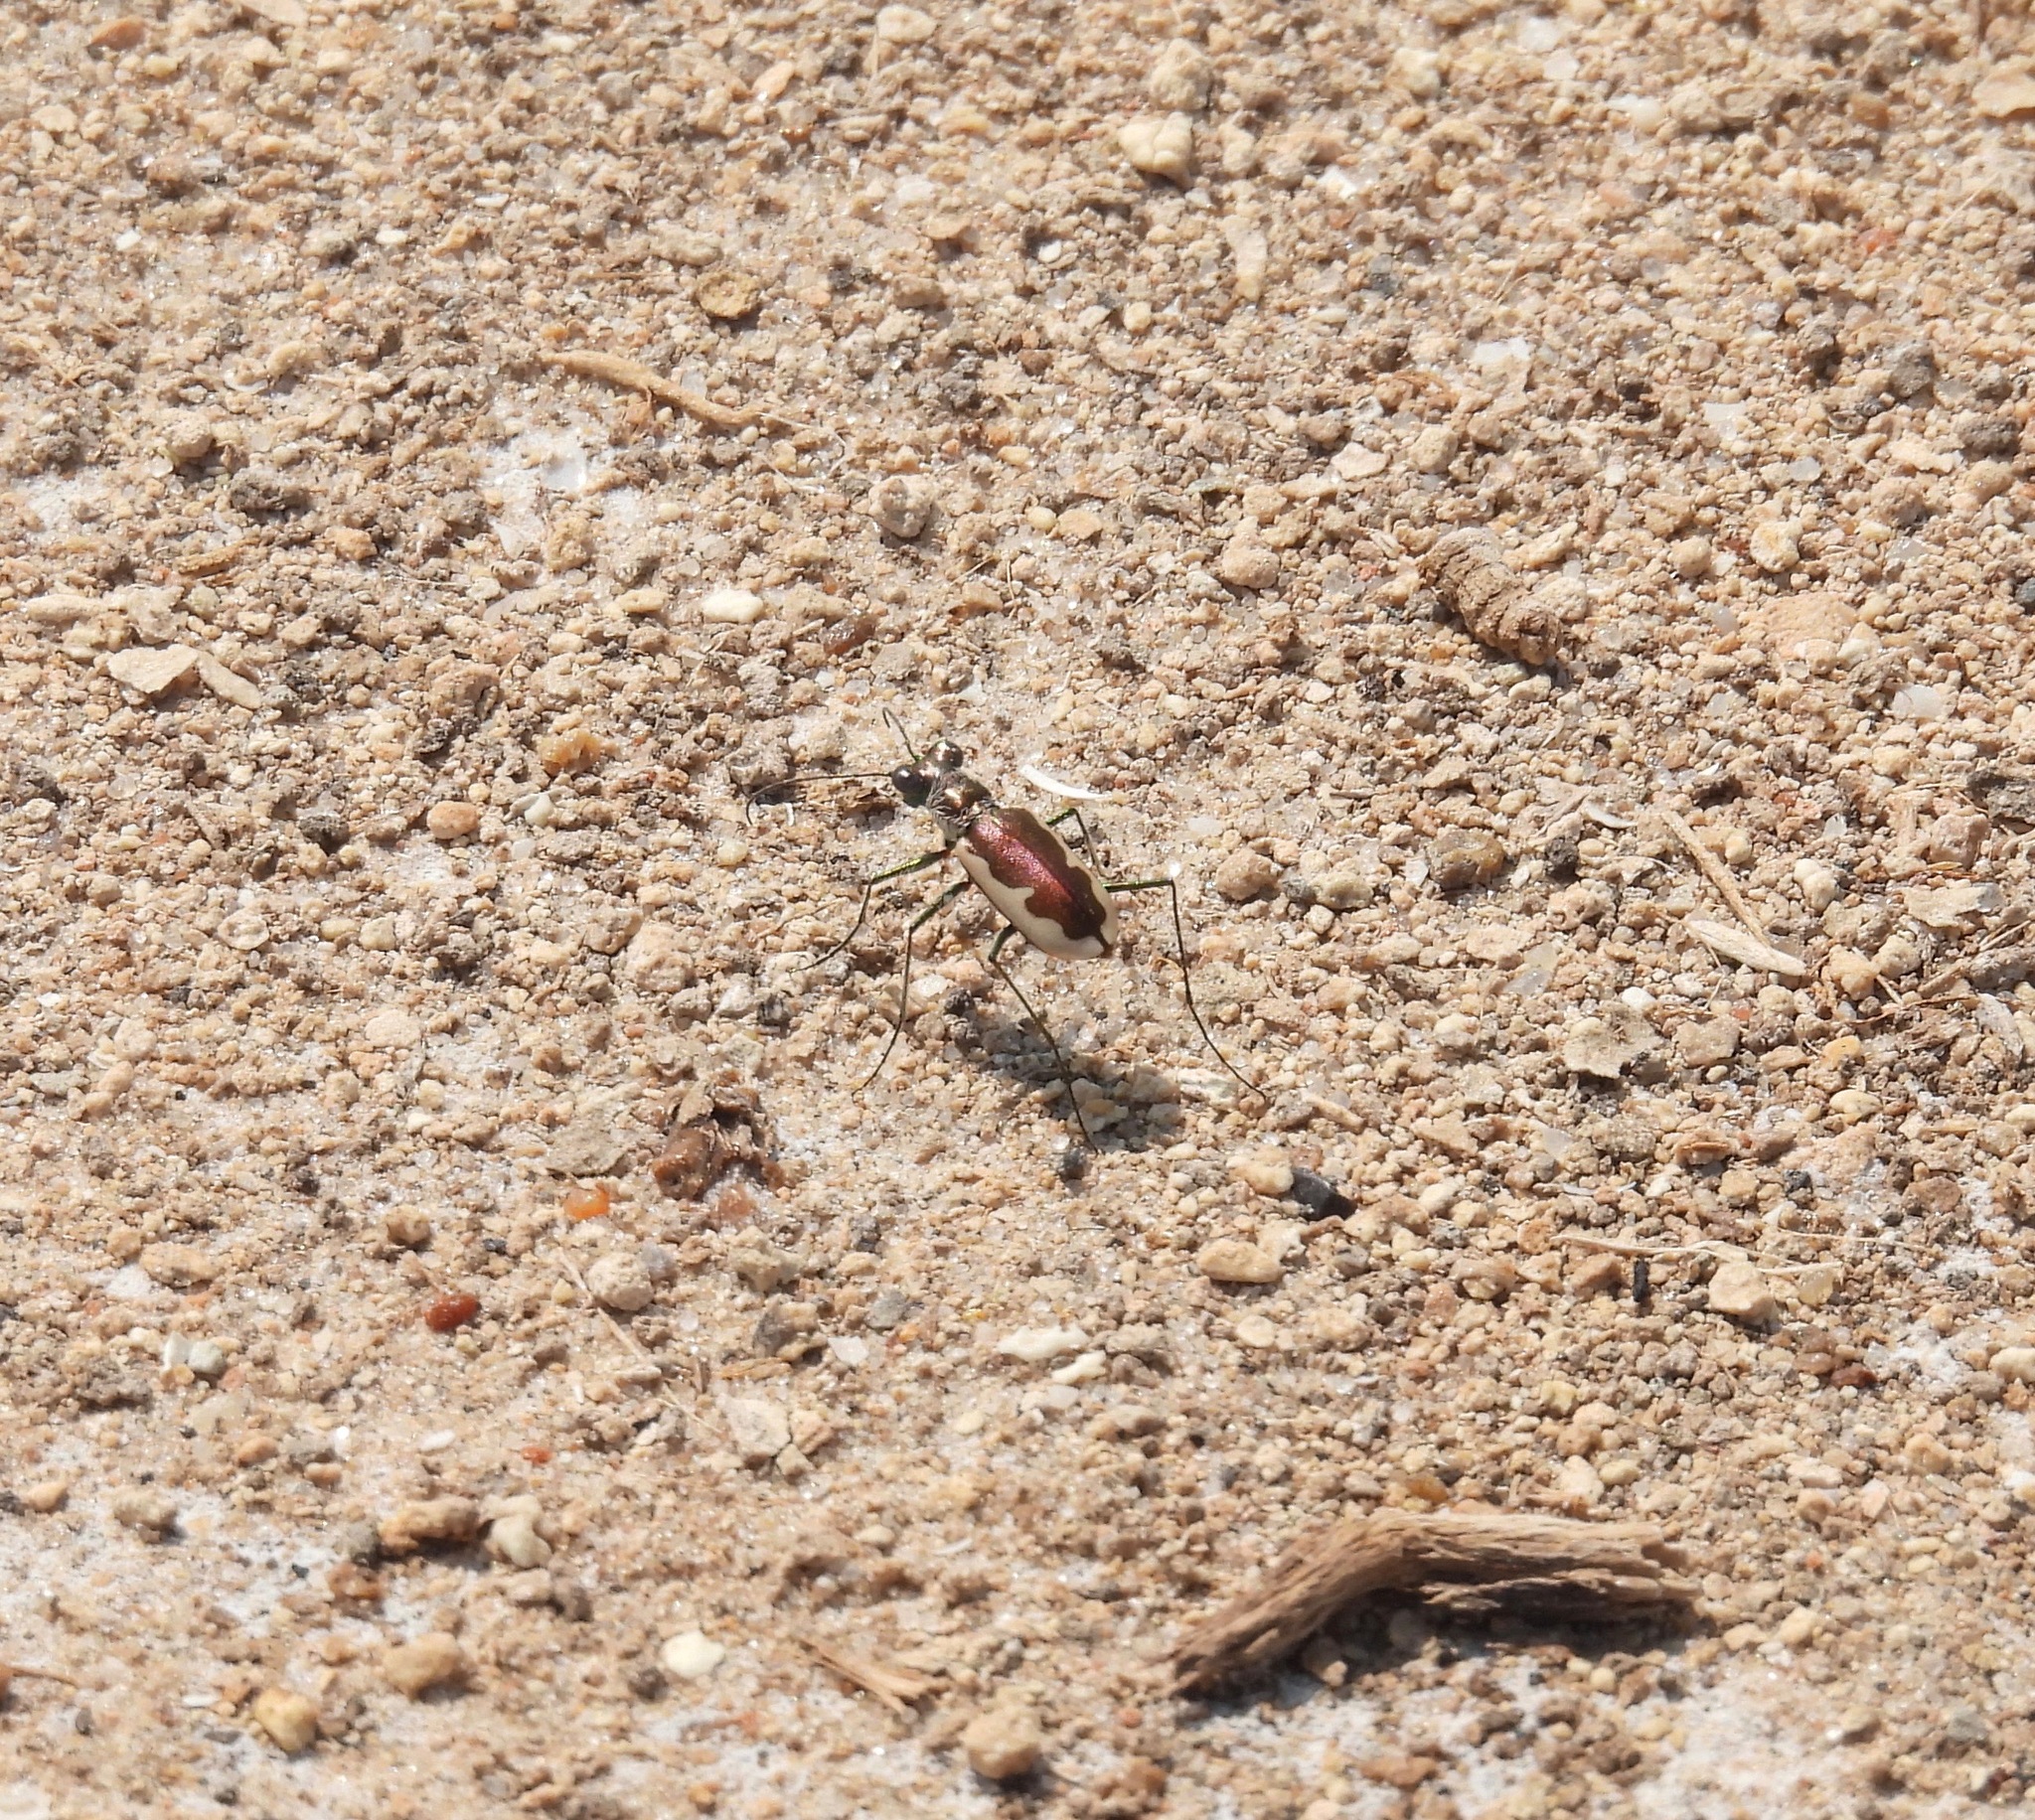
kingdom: Animalia
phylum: Arthropoda
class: Insecta
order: Coleoptera
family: Carabidae
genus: Eunota
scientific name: Eunota circumpicta
